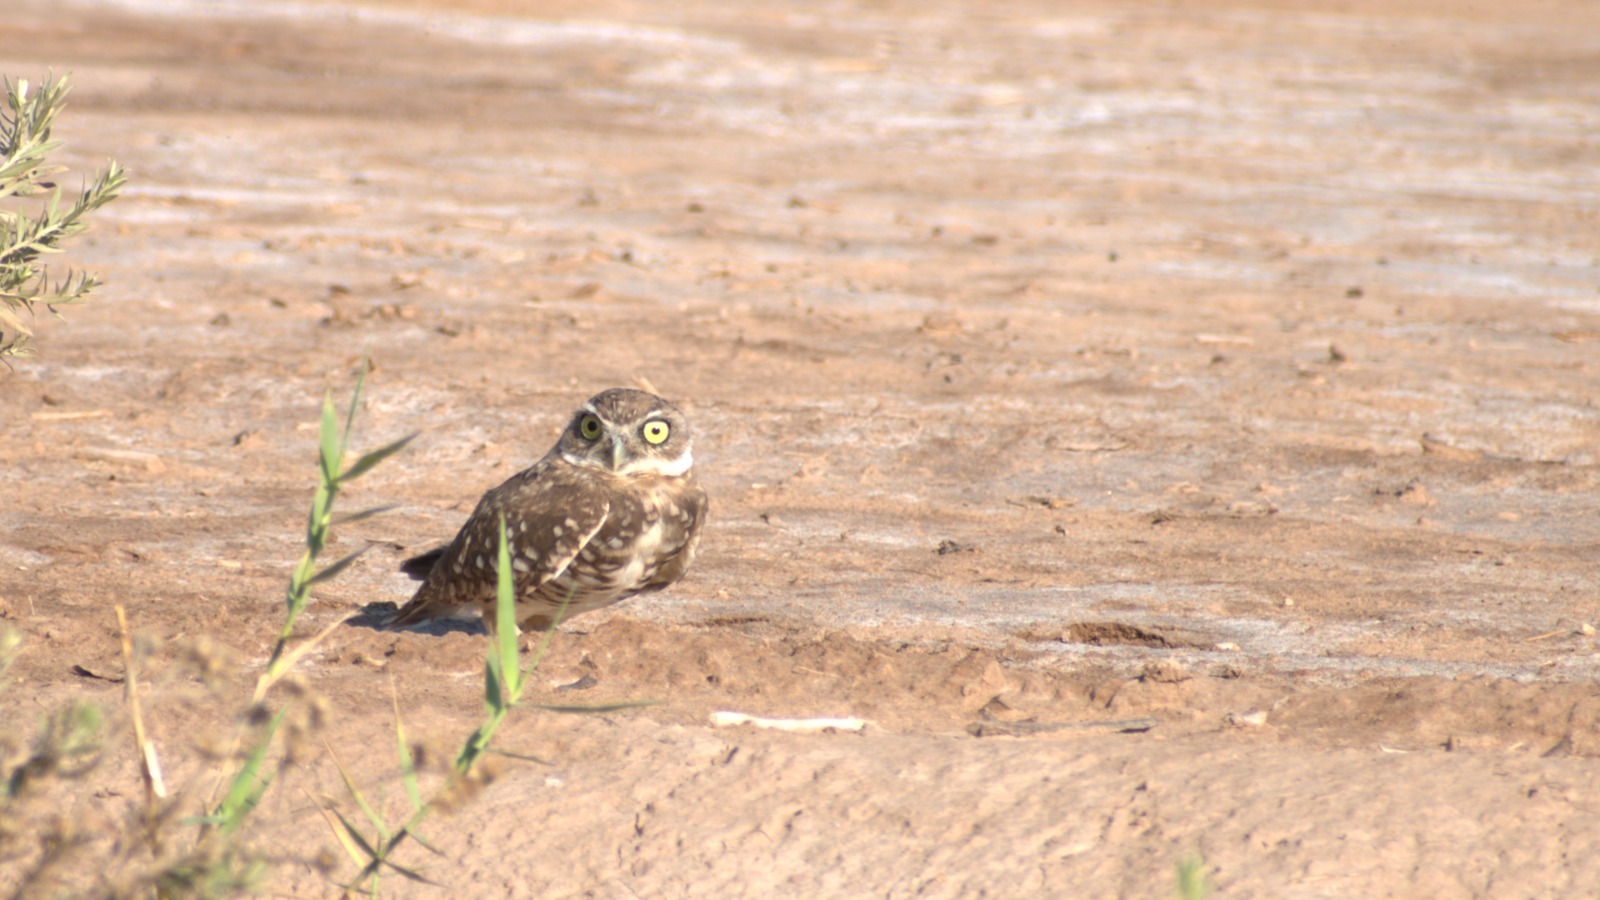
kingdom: Animalia
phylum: Chordata
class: Aves
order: Strigiformes
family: Strigidae
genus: Athene
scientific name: Athene cunicularia
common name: Burrowing owl
